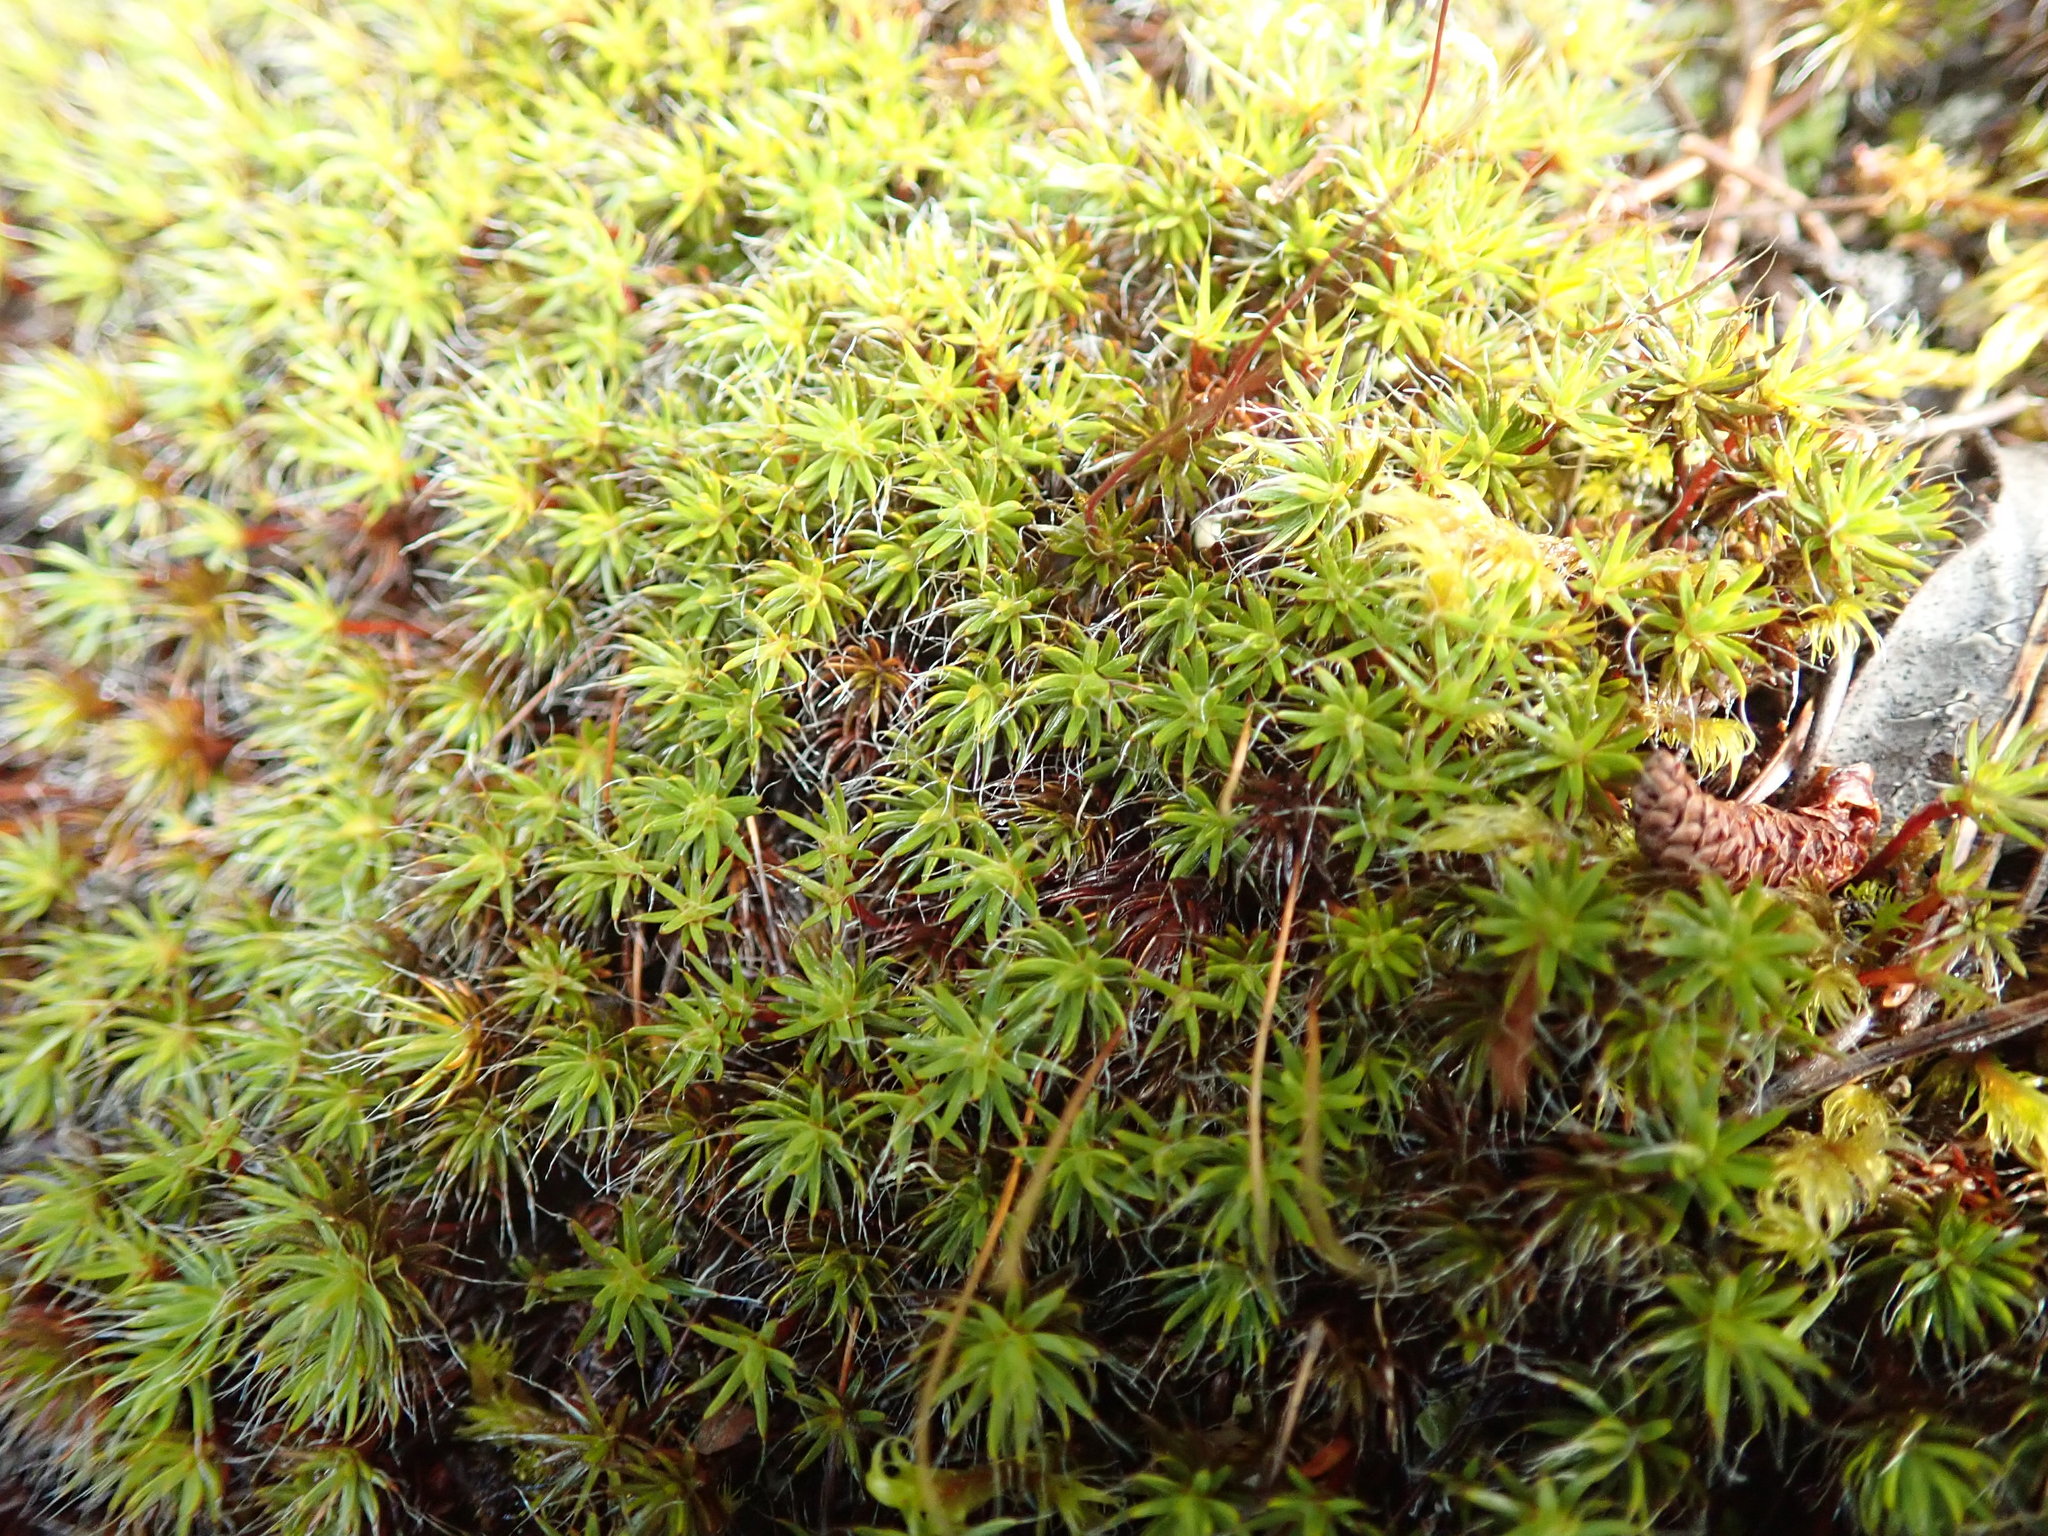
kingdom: Plantae
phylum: Bryophyta
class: Polytrichopsida
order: Polytrichales
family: Polytrichaceae
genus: Polytrichum
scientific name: Polytrichum piliferum
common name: Bristly haircap
